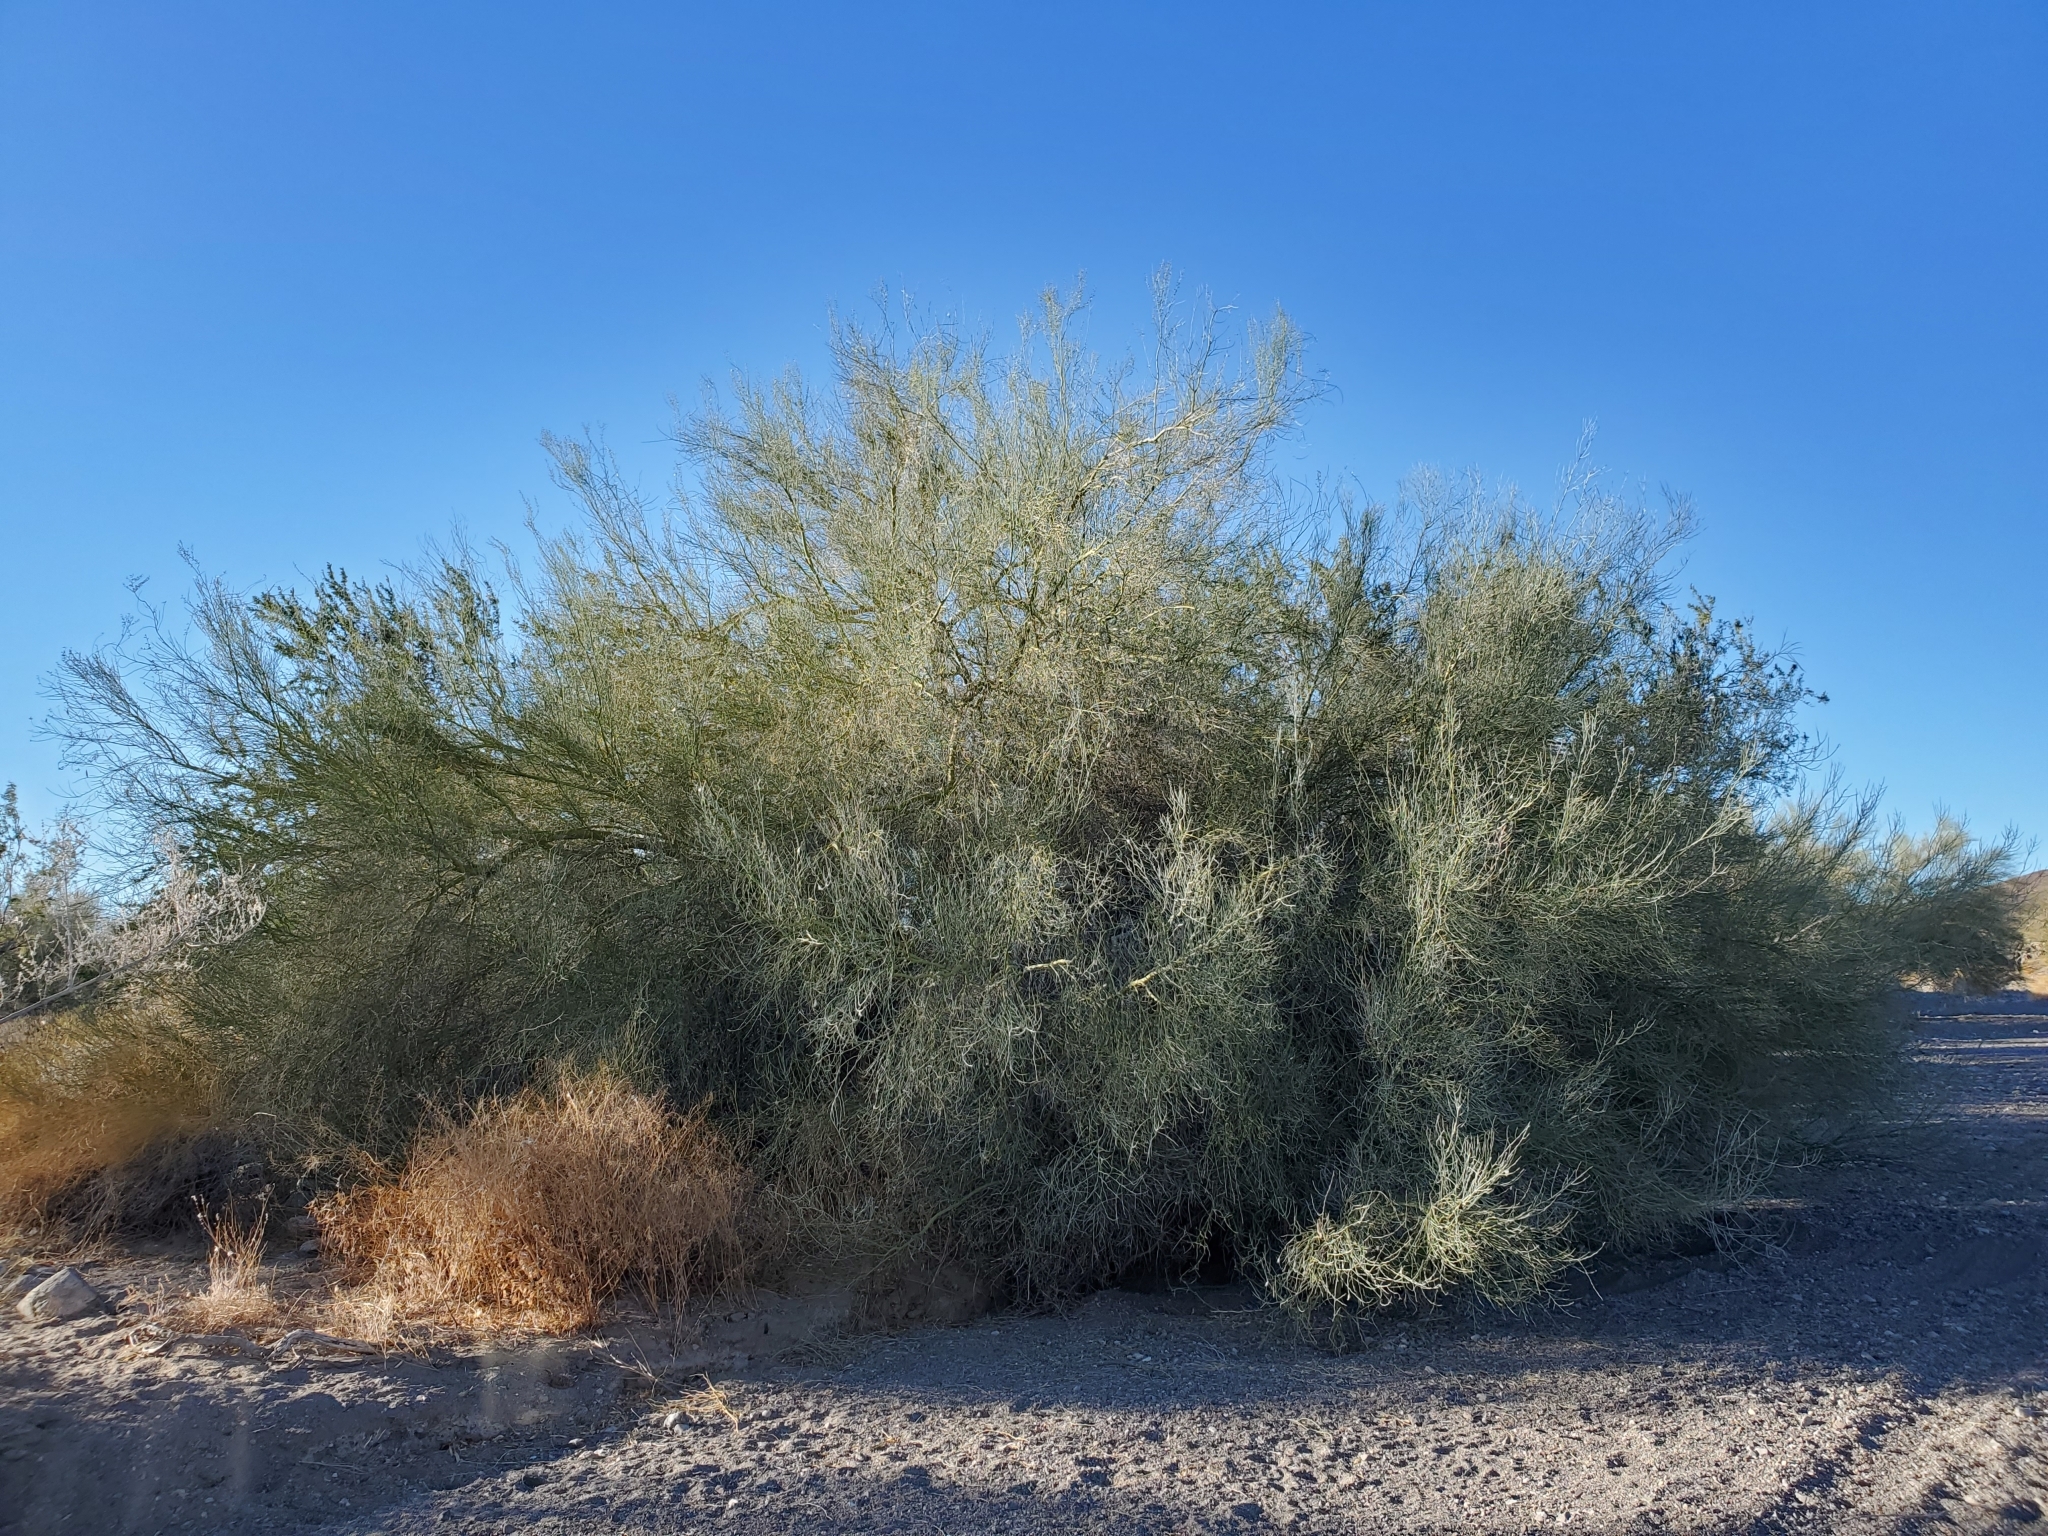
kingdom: Plantae
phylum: Tracheophyta
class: Magnoliopsida
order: Fabales
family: Fabaceae
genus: Parkinsonia
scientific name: Parkinsonia florida
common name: Blue paloverde
